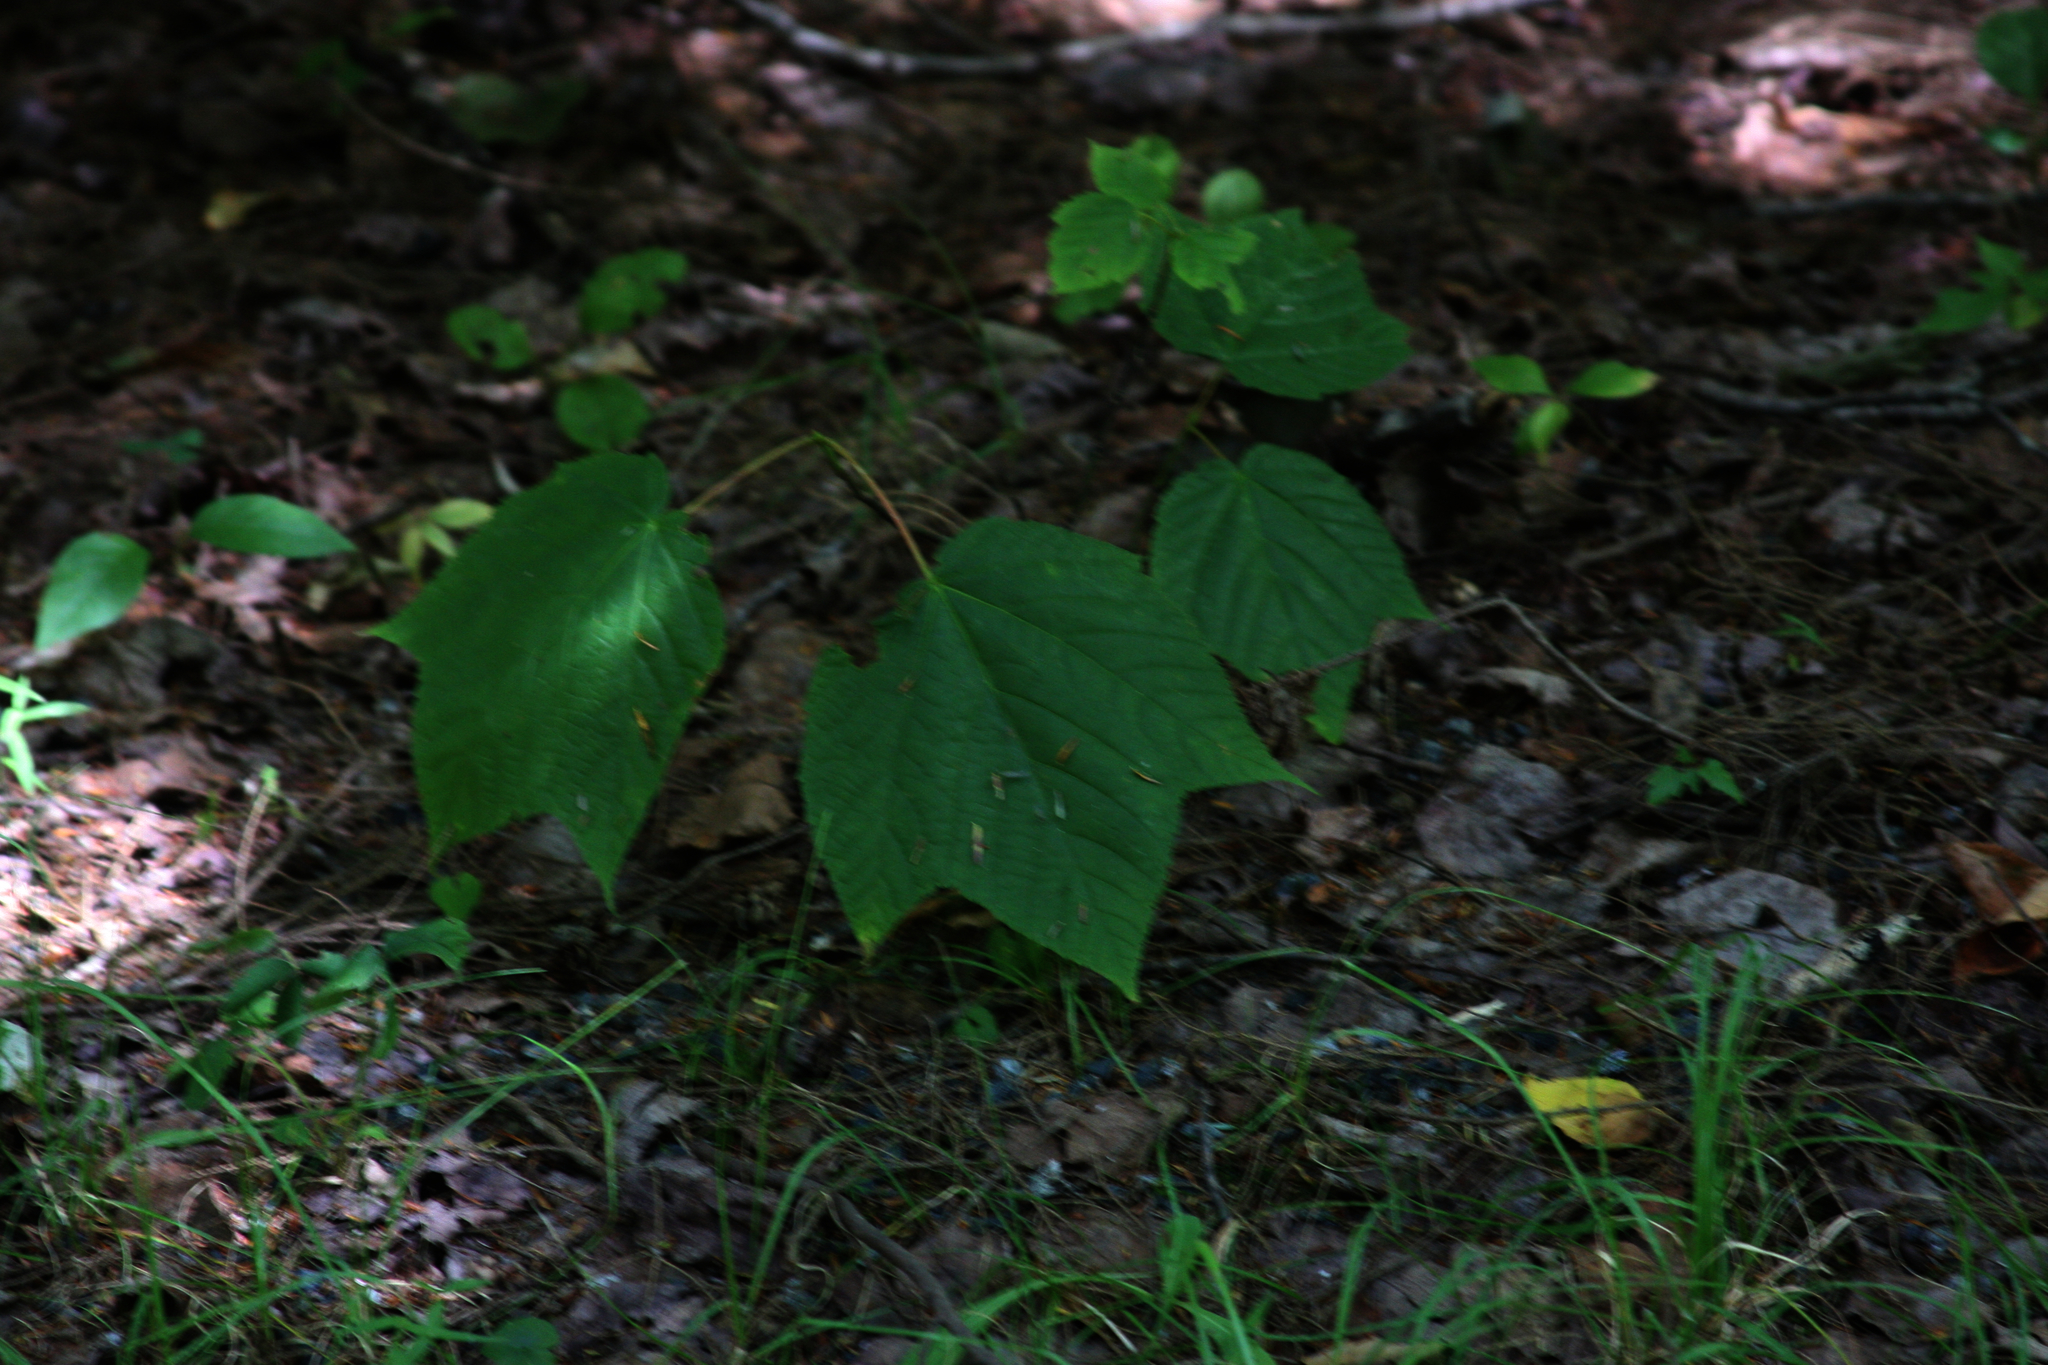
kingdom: Plantae
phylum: Tracheophyta
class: Magnoliopsida
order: Sapindales
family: Sapindaceae
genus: Acer
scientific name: Acer pensylvanicum
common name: Moosewood
